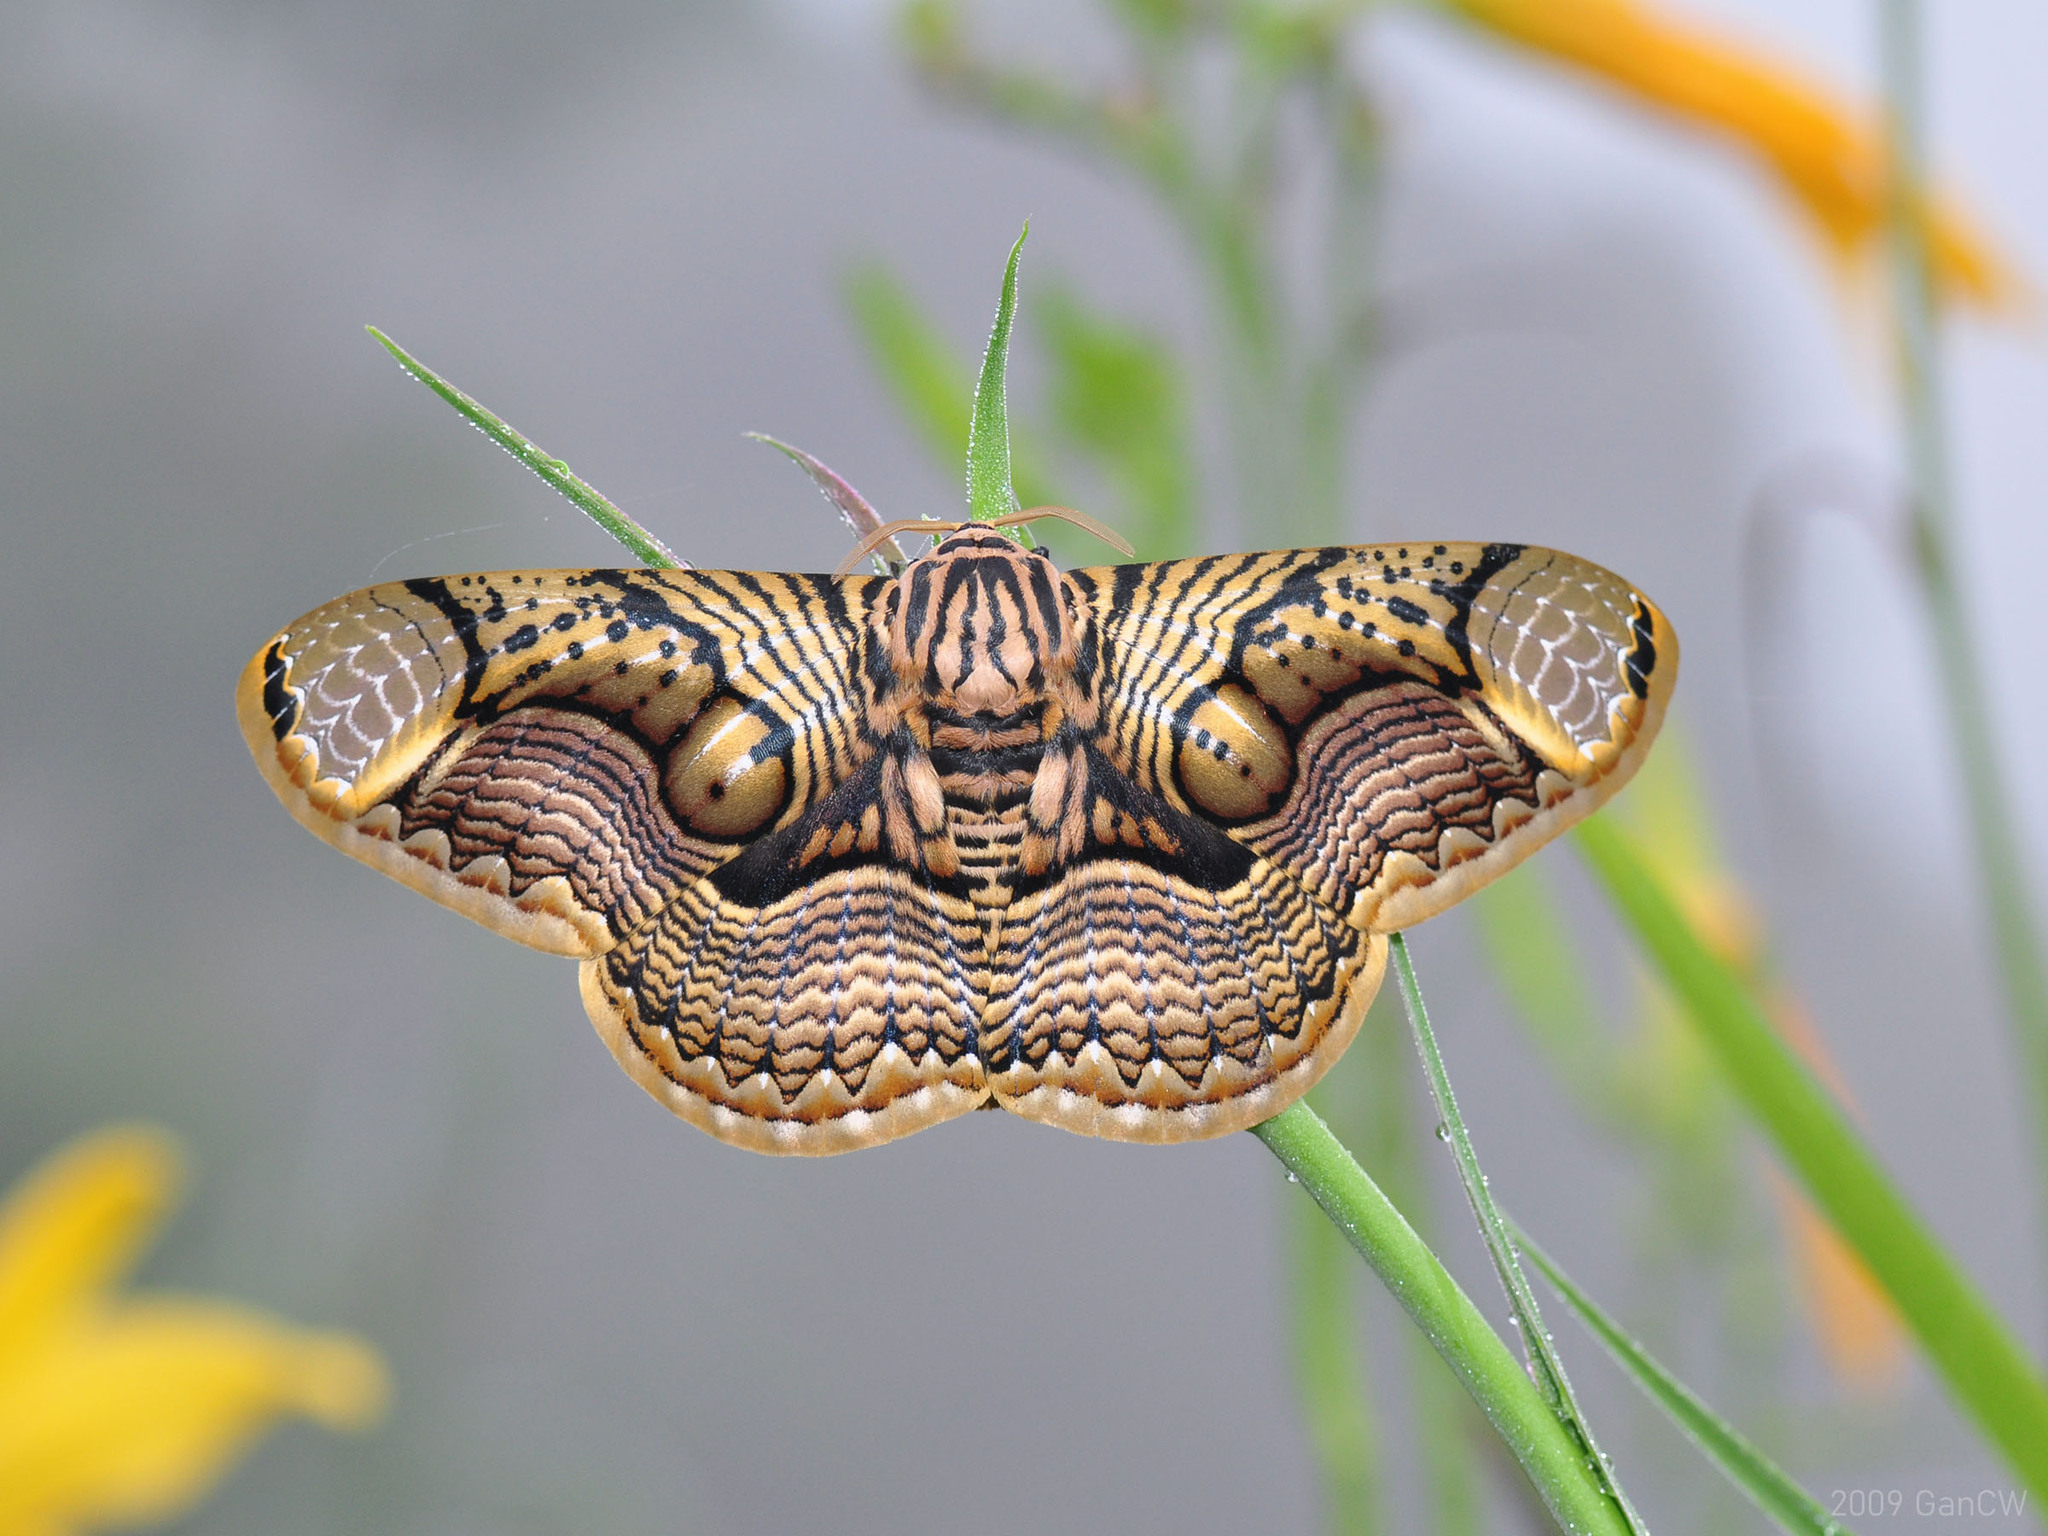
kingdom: Animalia
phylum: Arthropoda
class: Insecta
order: Lepidoptera
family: Brahmaeidae
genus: Brahmaea
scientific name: Brahmaea hearseyi
